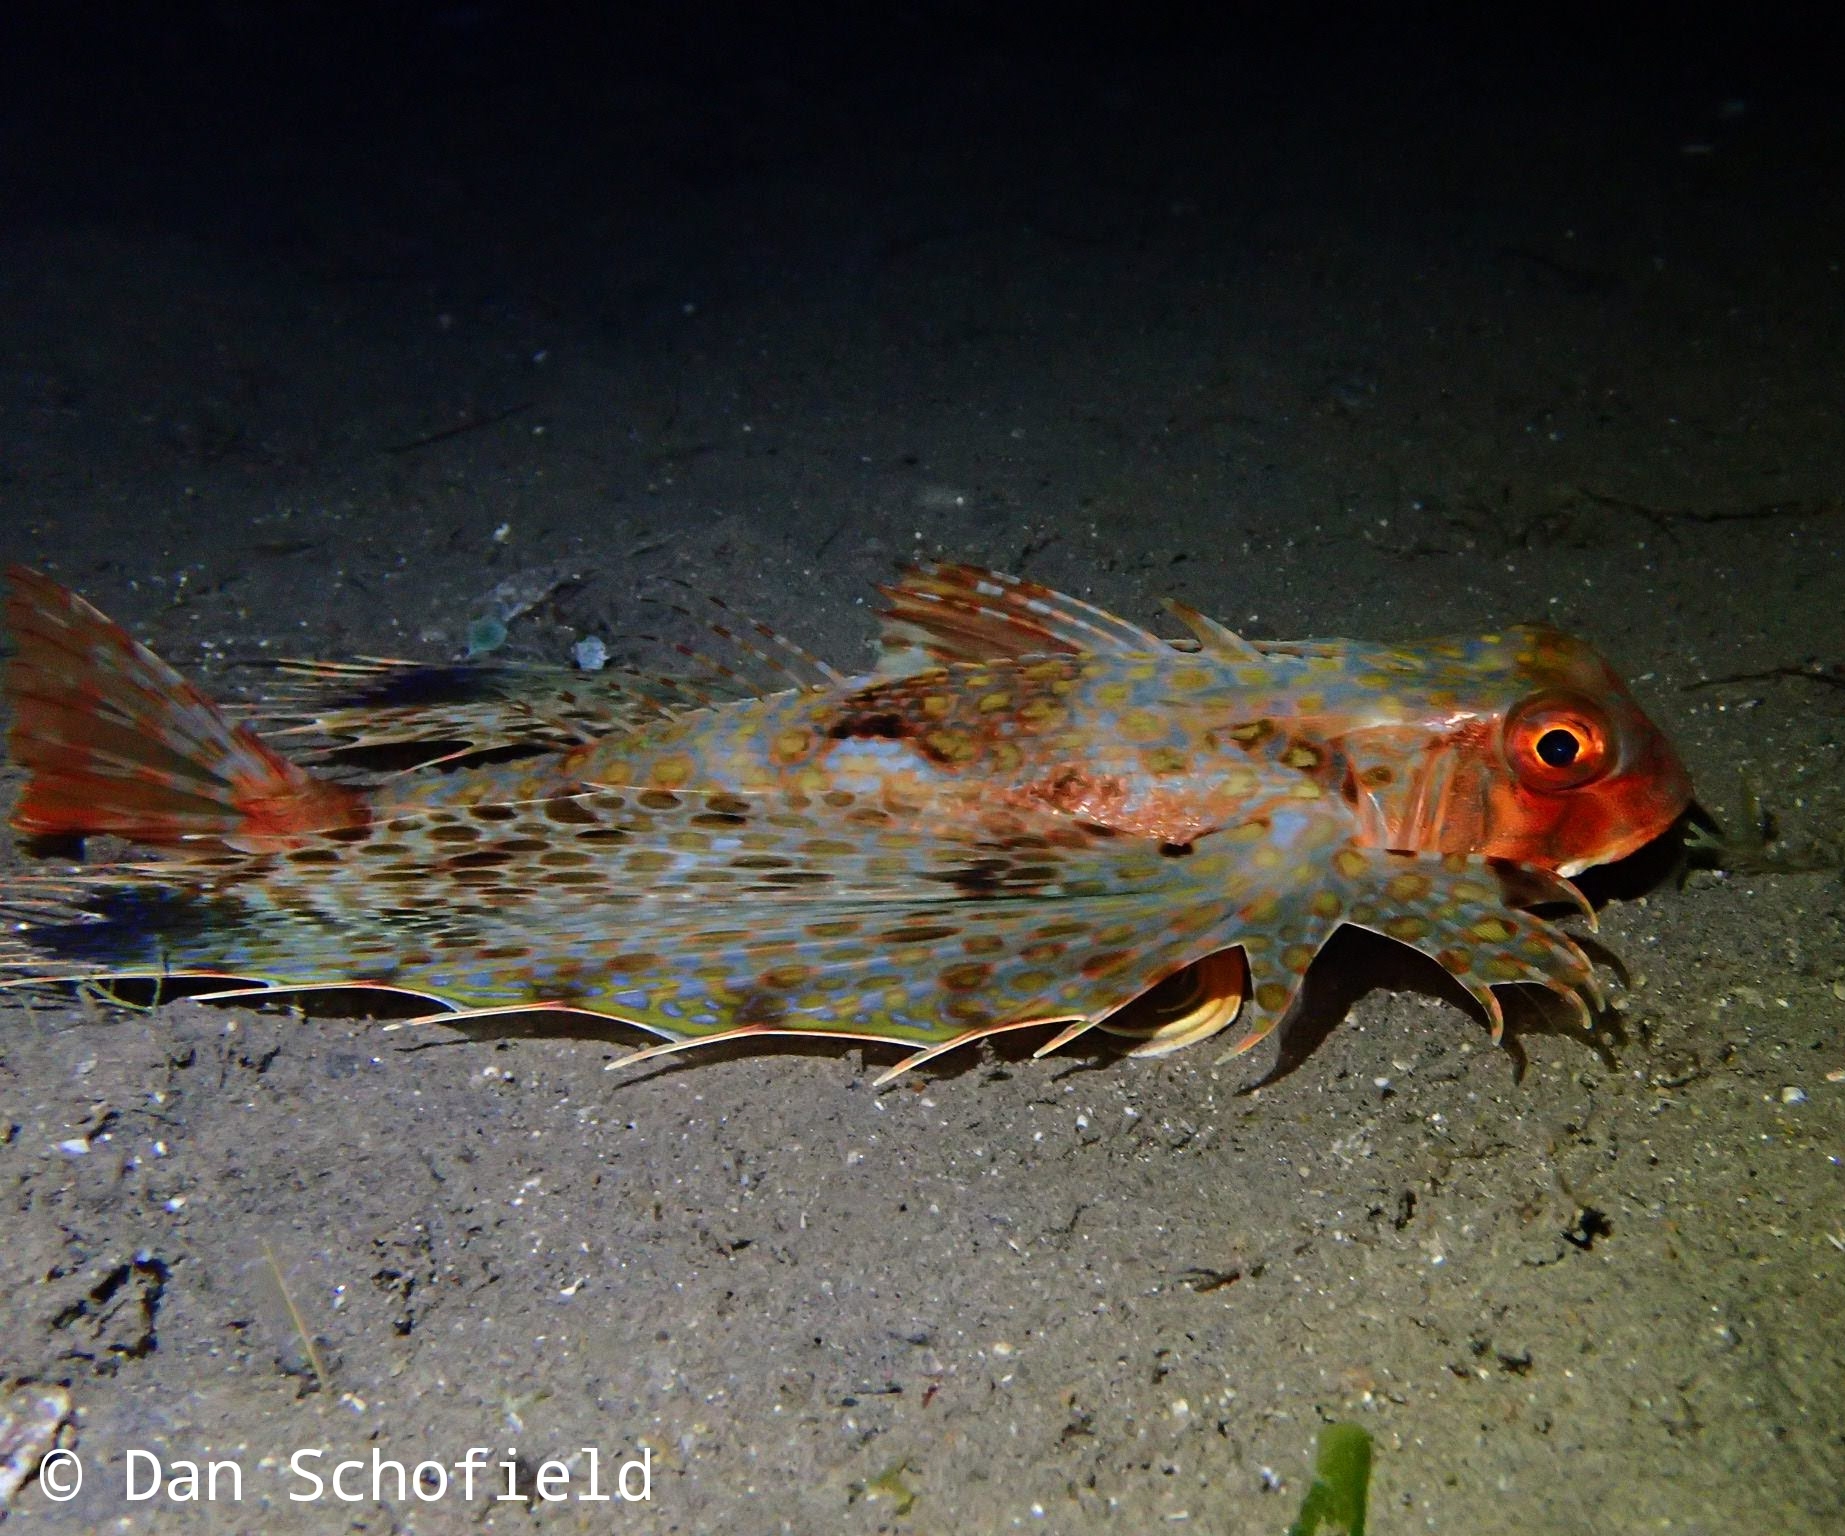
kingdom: Animalia
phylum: Chordata
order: Scorpaeniformes
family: Dactylopteridae
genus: Dactyloptena
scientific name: Dactyloptena orientalis
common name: Flying gurnard
